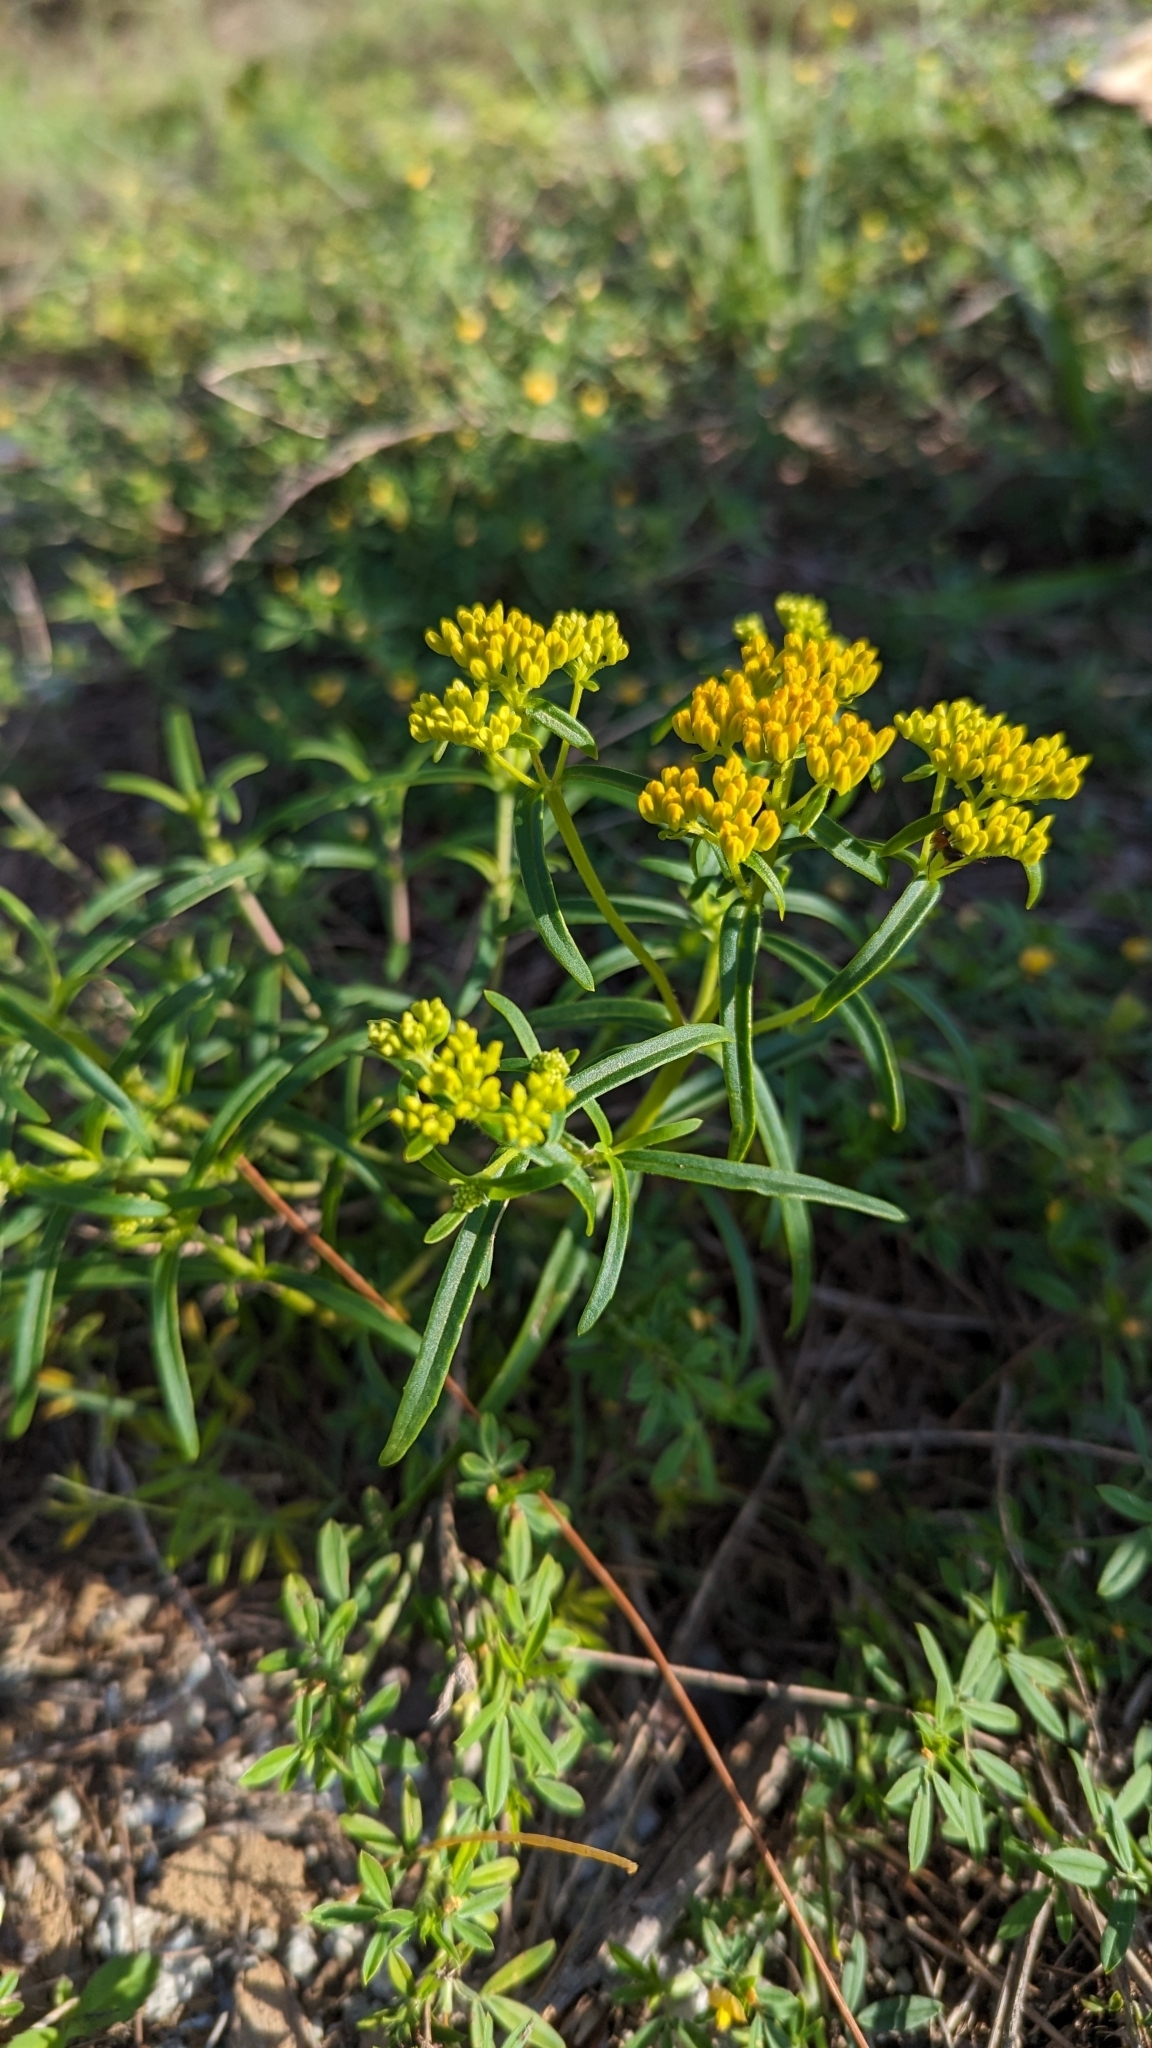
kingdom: Plantae
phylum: Tracheophyta
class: Magnoliopsida
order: Asterales
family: Asteraceae
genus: Flaveria
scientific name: Flaveria linearis
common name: Yellowtop
